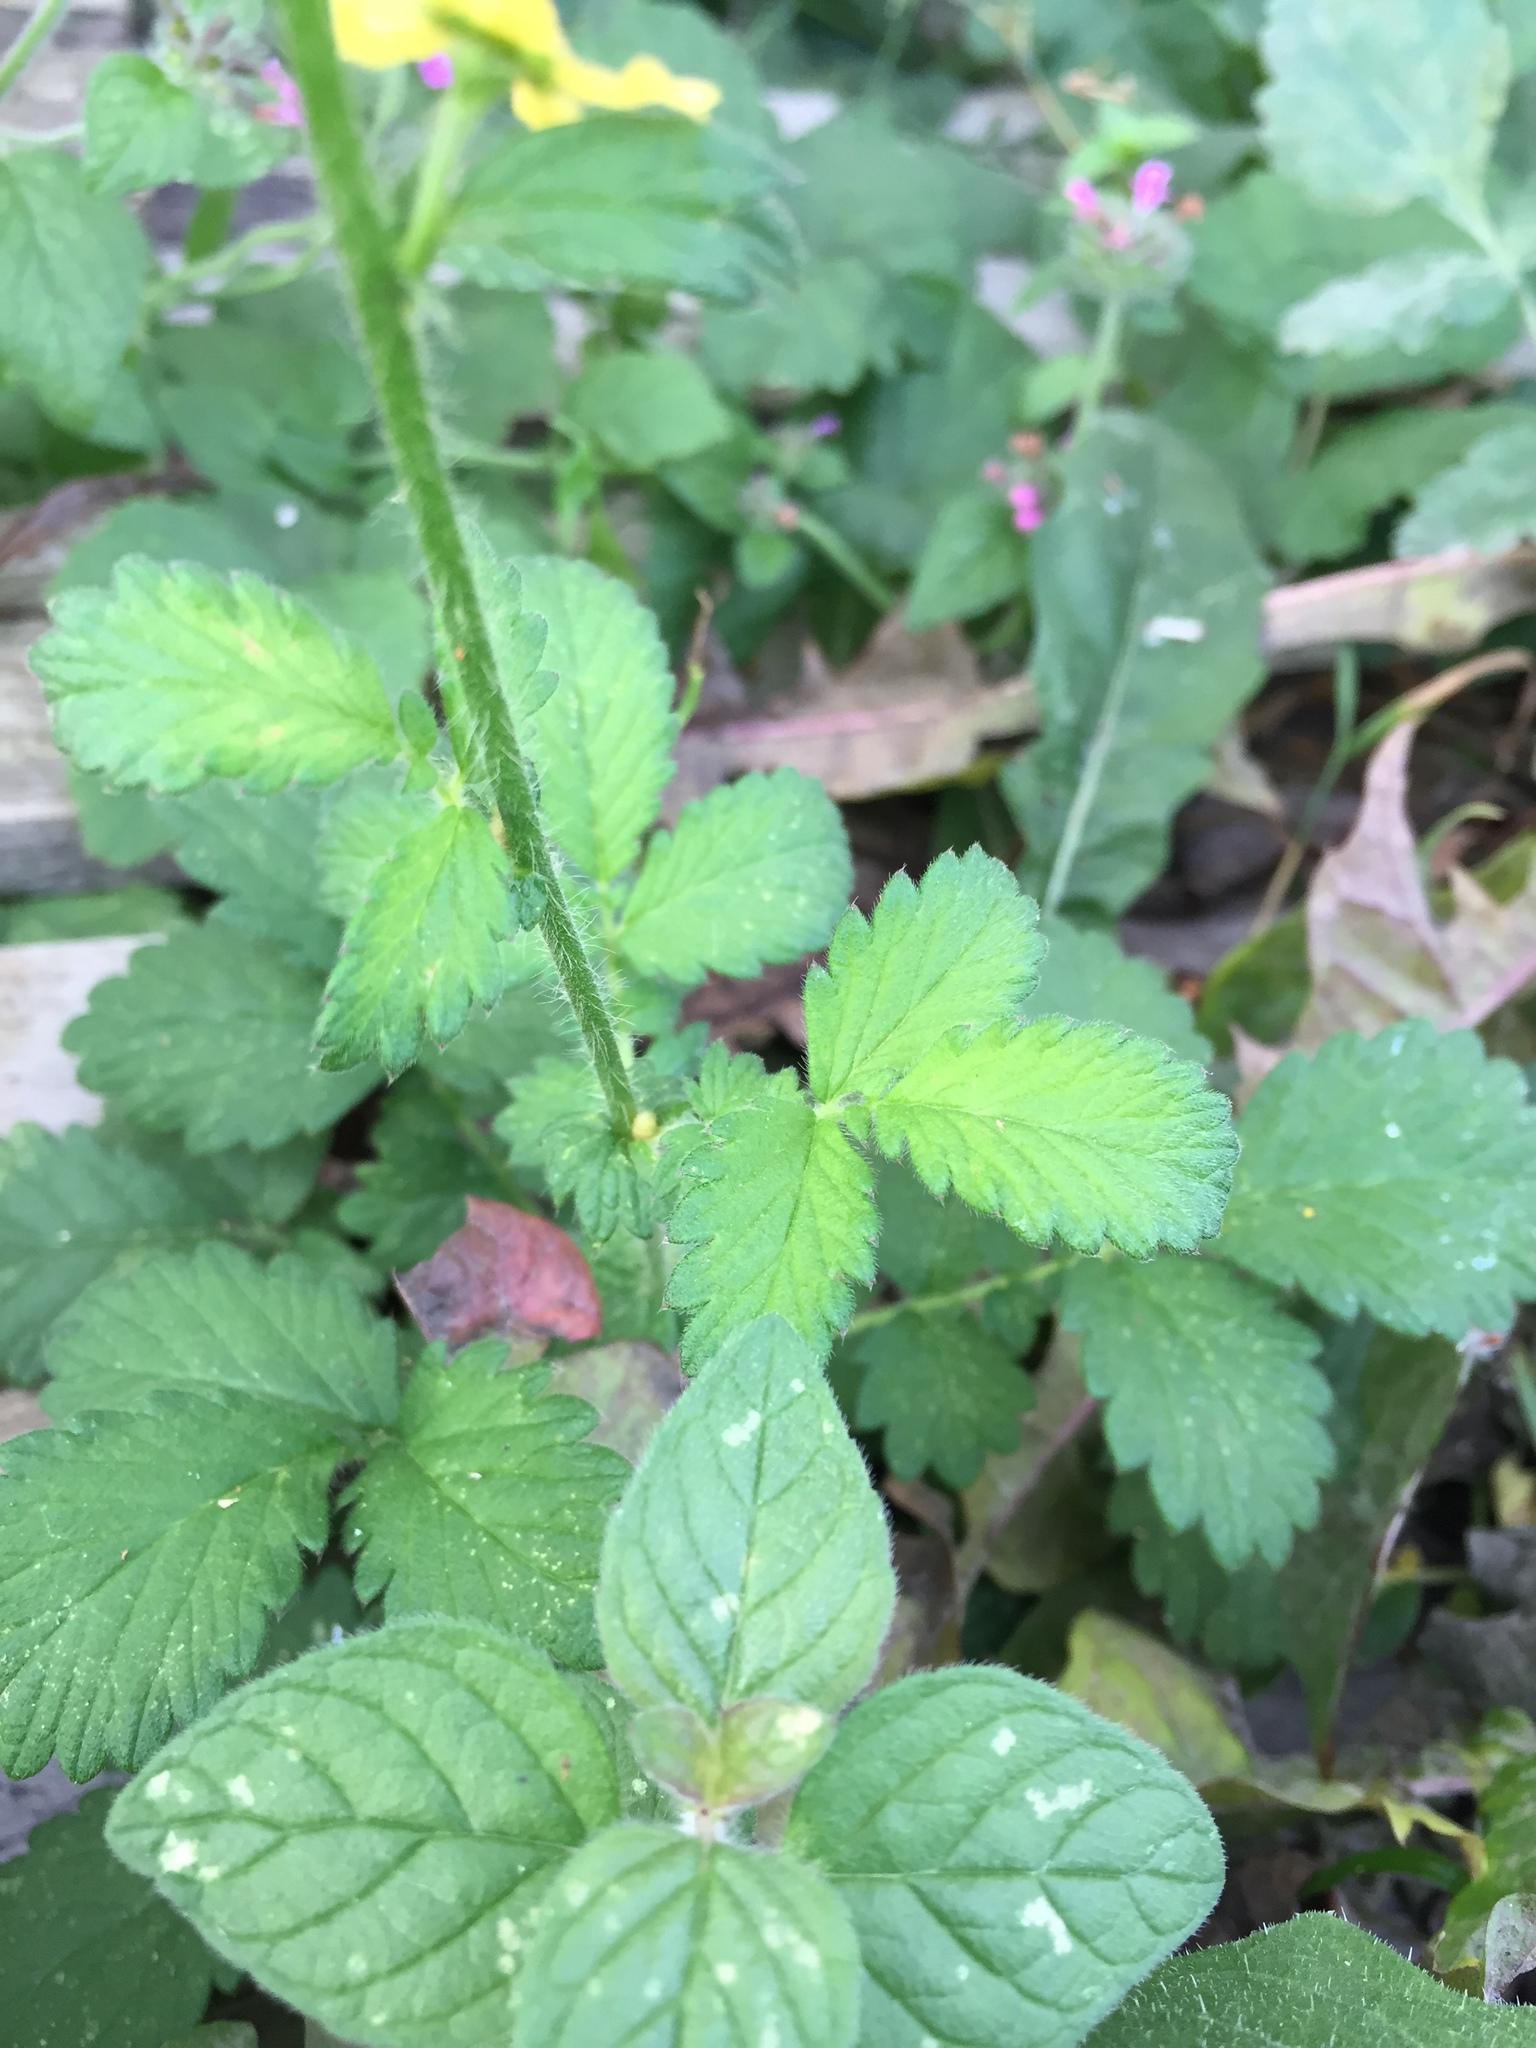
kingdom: Plantae
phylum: Tracheophyta
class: Magnoliopsida
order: Rosales
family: Rosaceae
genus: Agrimonia
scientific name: Agrimonia eupatoria
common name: Agrimony
